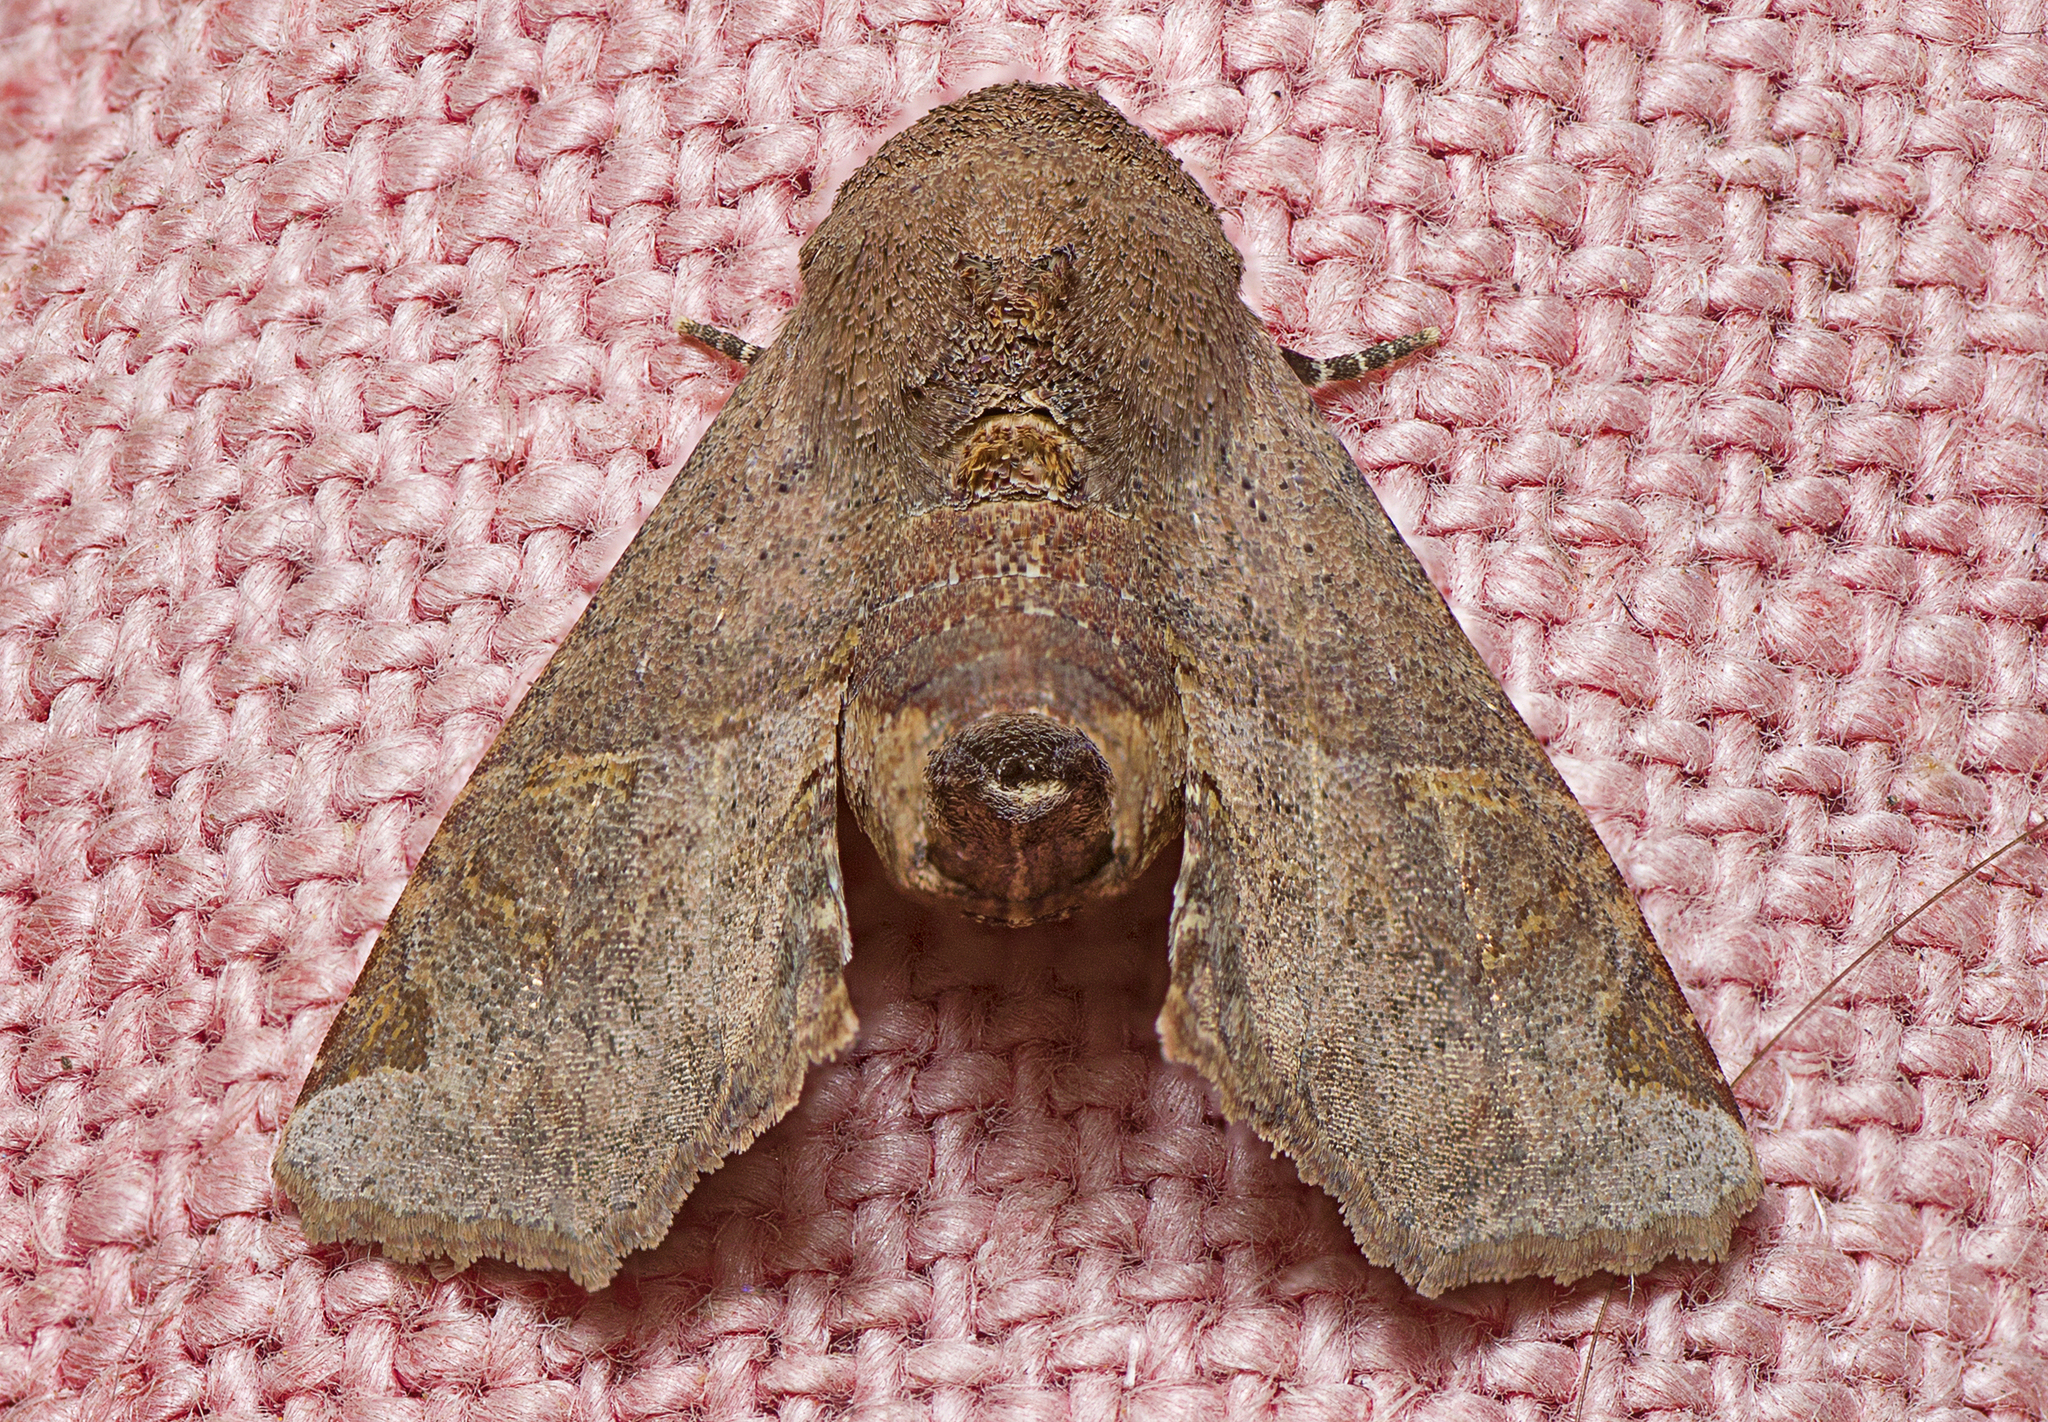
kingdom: Animalia
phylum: Arthropoda
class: Insecta
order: Lepidoptera
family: Euteliidae
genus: Targalla
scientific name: Targalla delatrix
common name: Eugenia caterpillar
